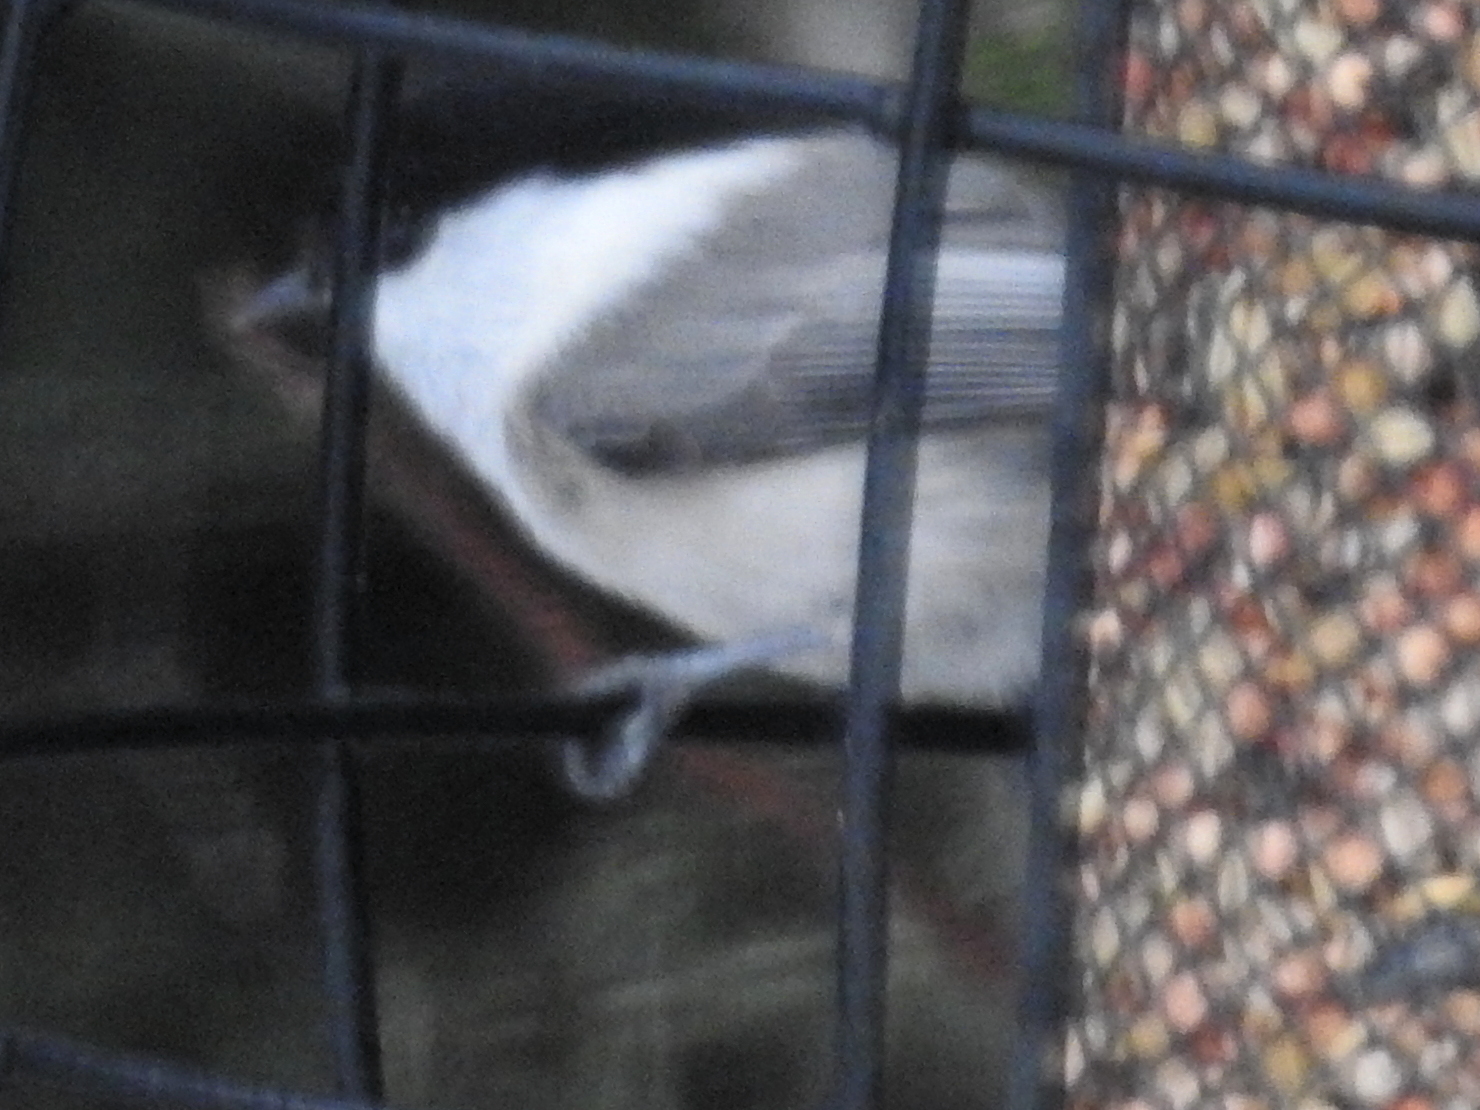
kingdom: Animalia
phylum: Chordata
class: Aves
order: Passeriformes
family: Paridae
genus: Poecile
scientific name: Poecile montanus
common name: Willow tit
